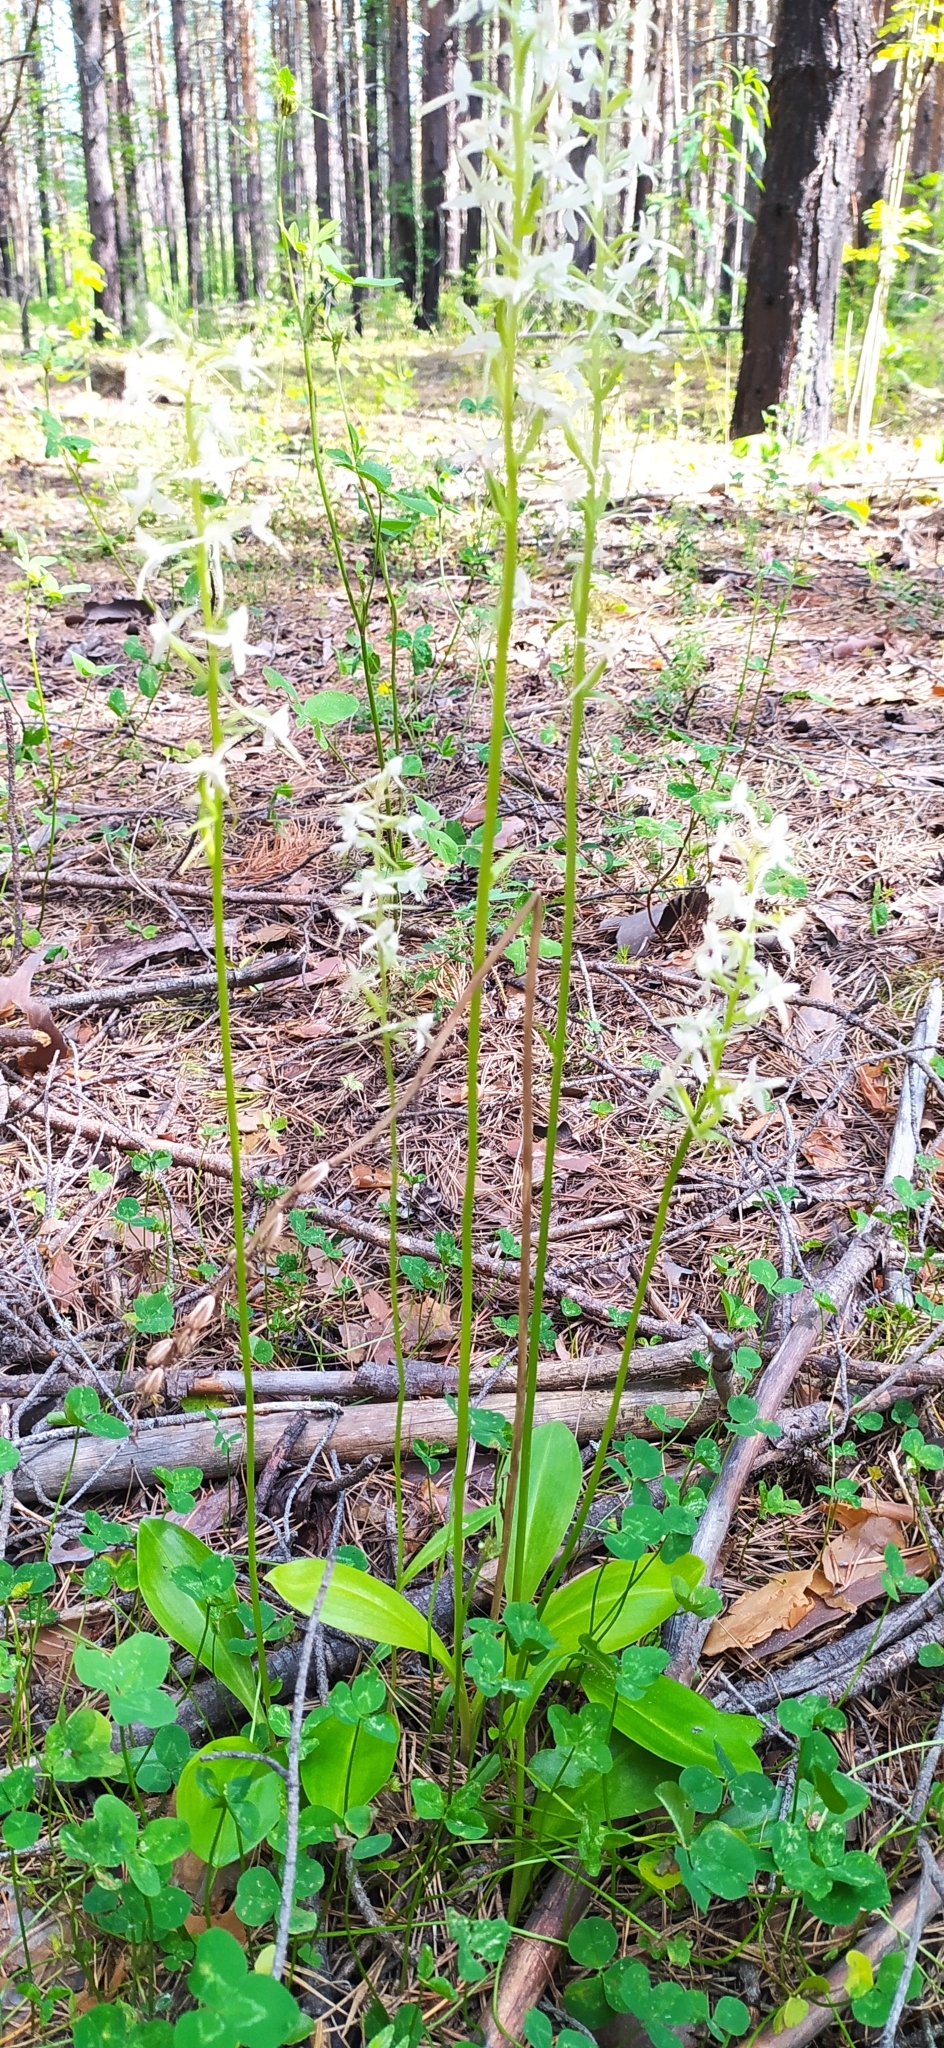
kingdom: Plantae
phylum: Tracheophyta
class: Liliopsida
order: Asparagales
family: Orchidaceae
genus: Platanthera
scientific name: Platanthera bifolia
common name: Lesser butterfly-orchid
